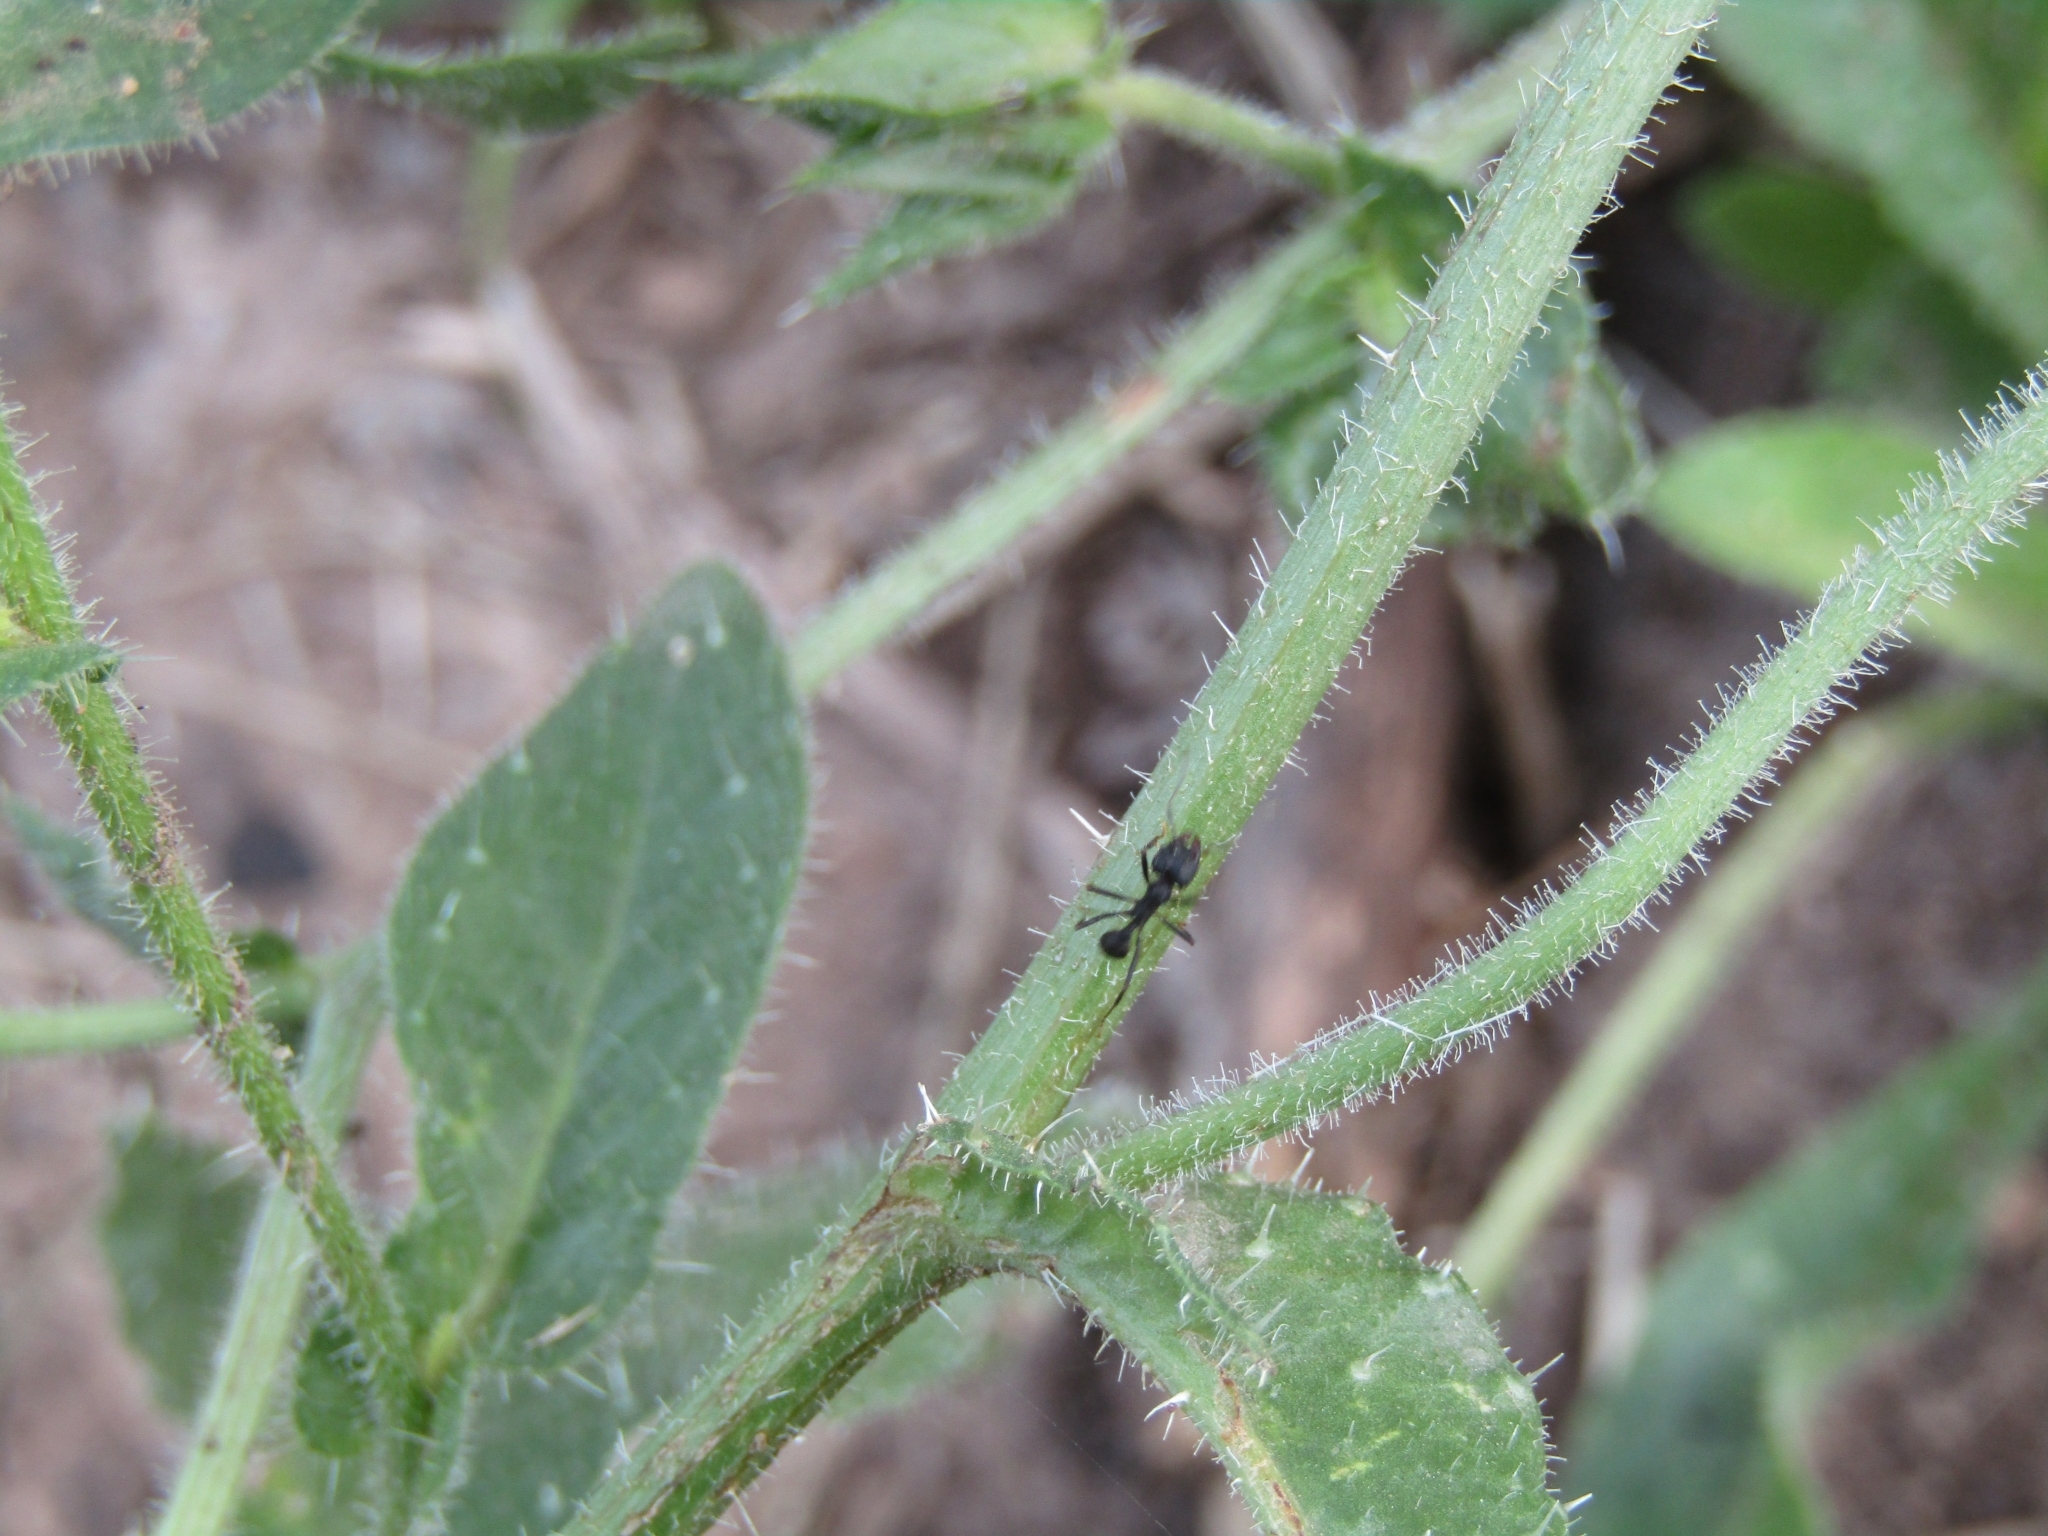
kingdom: Plantae
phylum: Tracheophyta
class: Magnoliopsida
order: Asterales
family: Asteraceae
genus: Helminthotheca
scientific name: Helminthotheca echioides
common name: Ox-tongue
